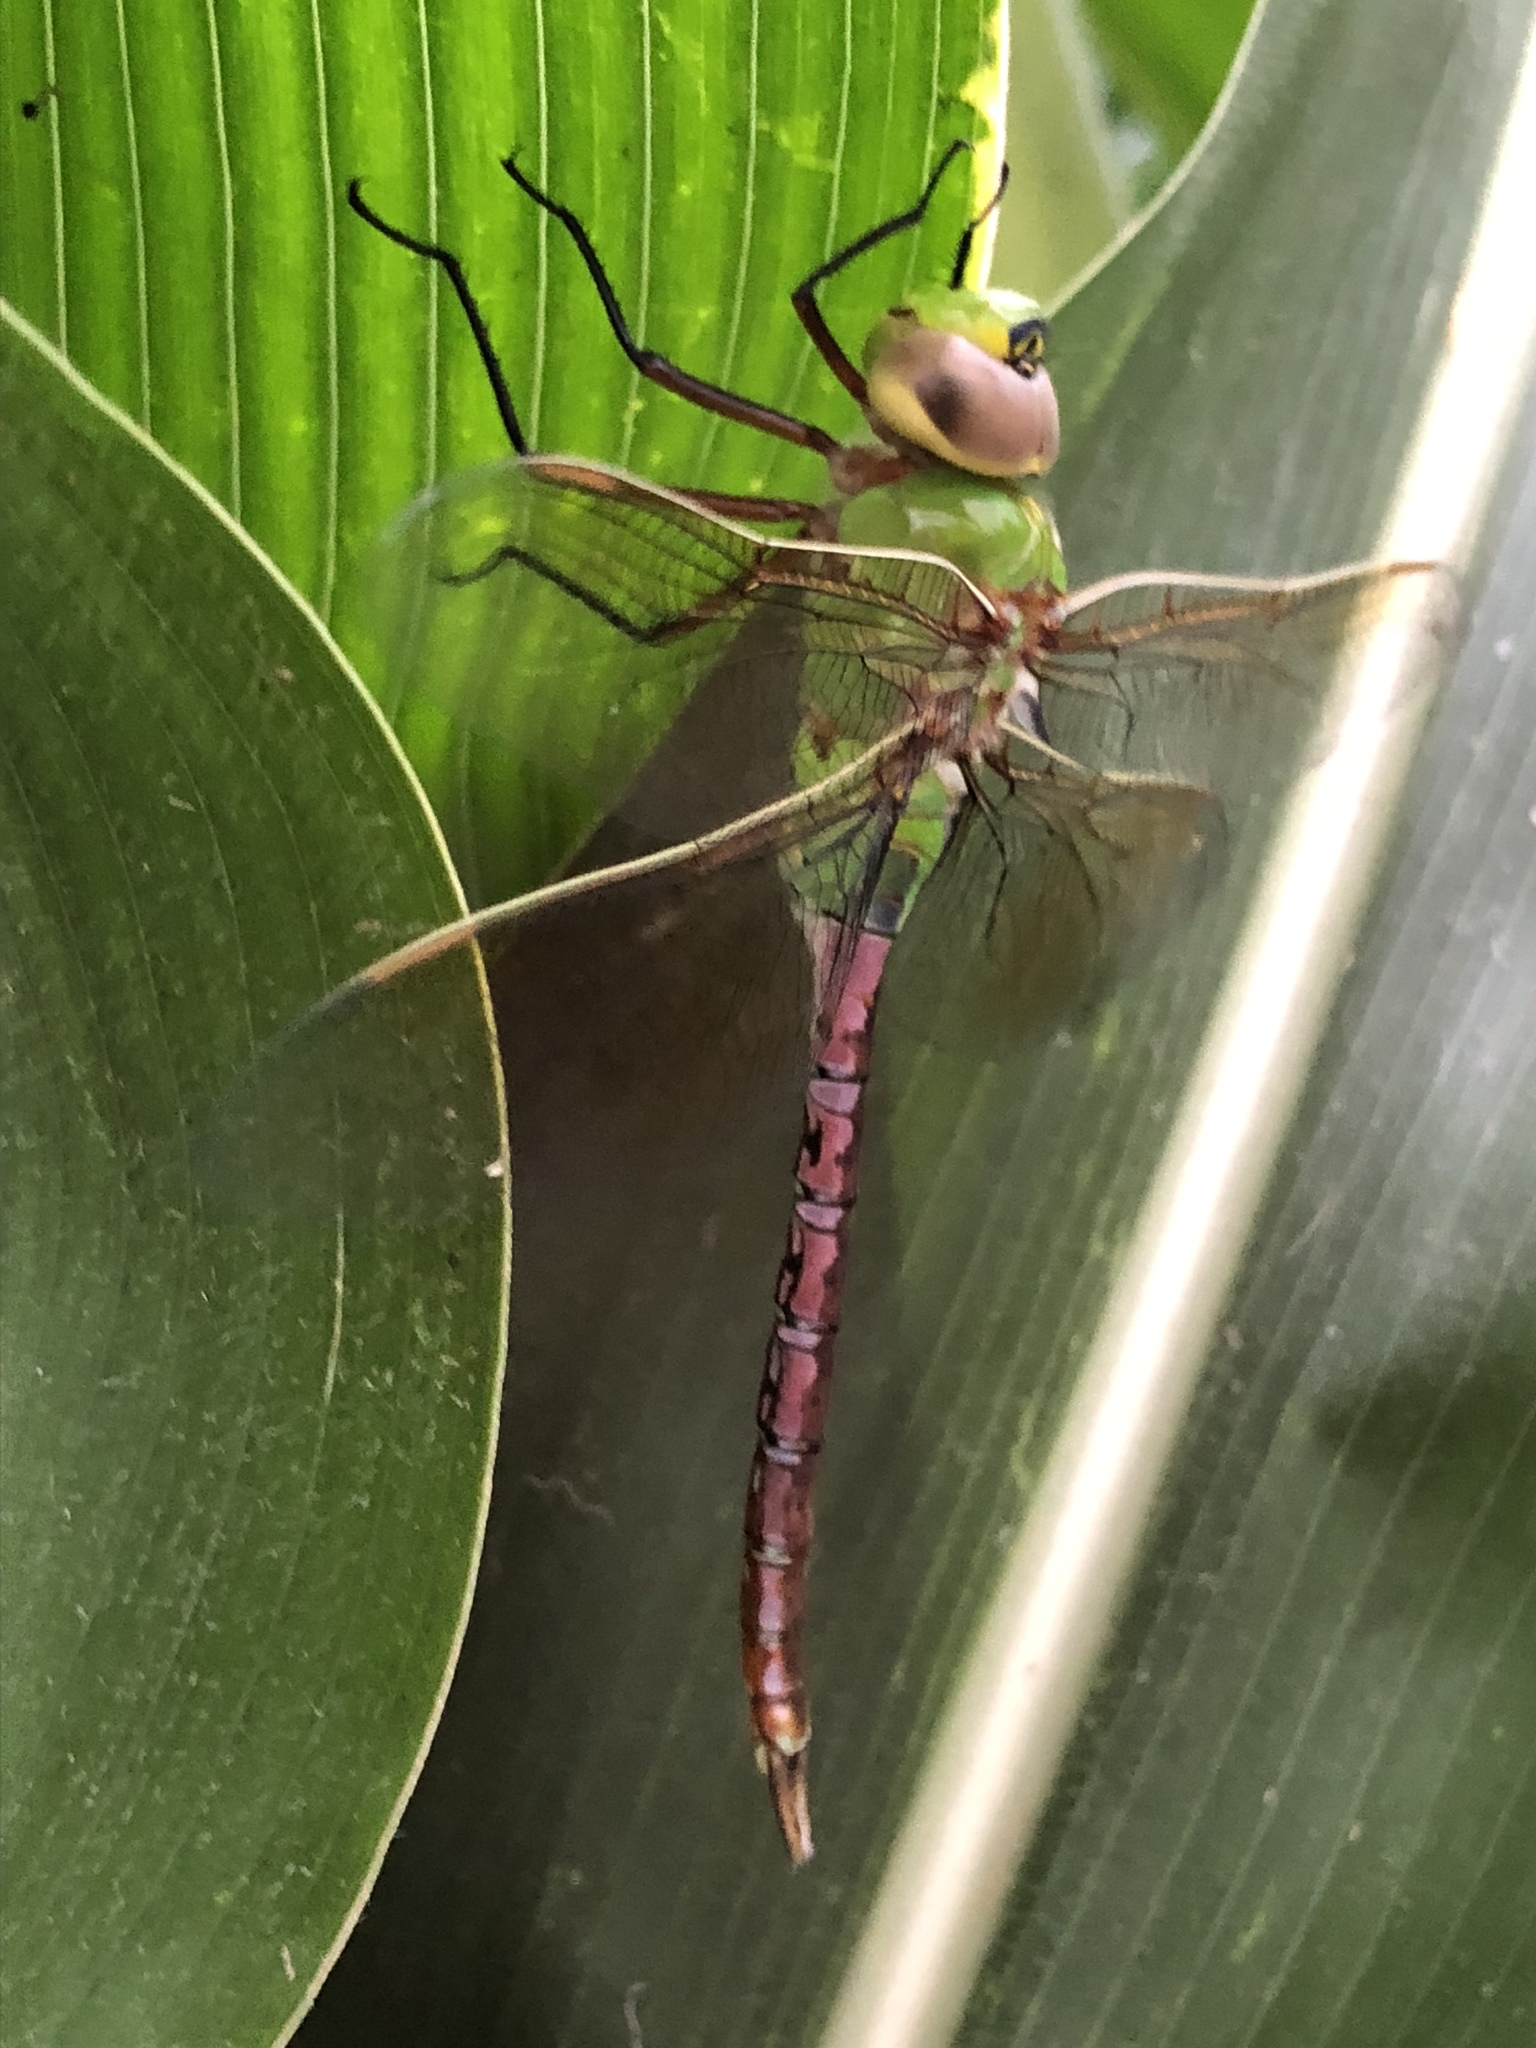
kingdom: Animalia
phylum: Arthropoda
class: Insecta
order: Odonata
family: Aeshnidae
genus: Anax
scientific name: Anax junius
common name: Common green darner
